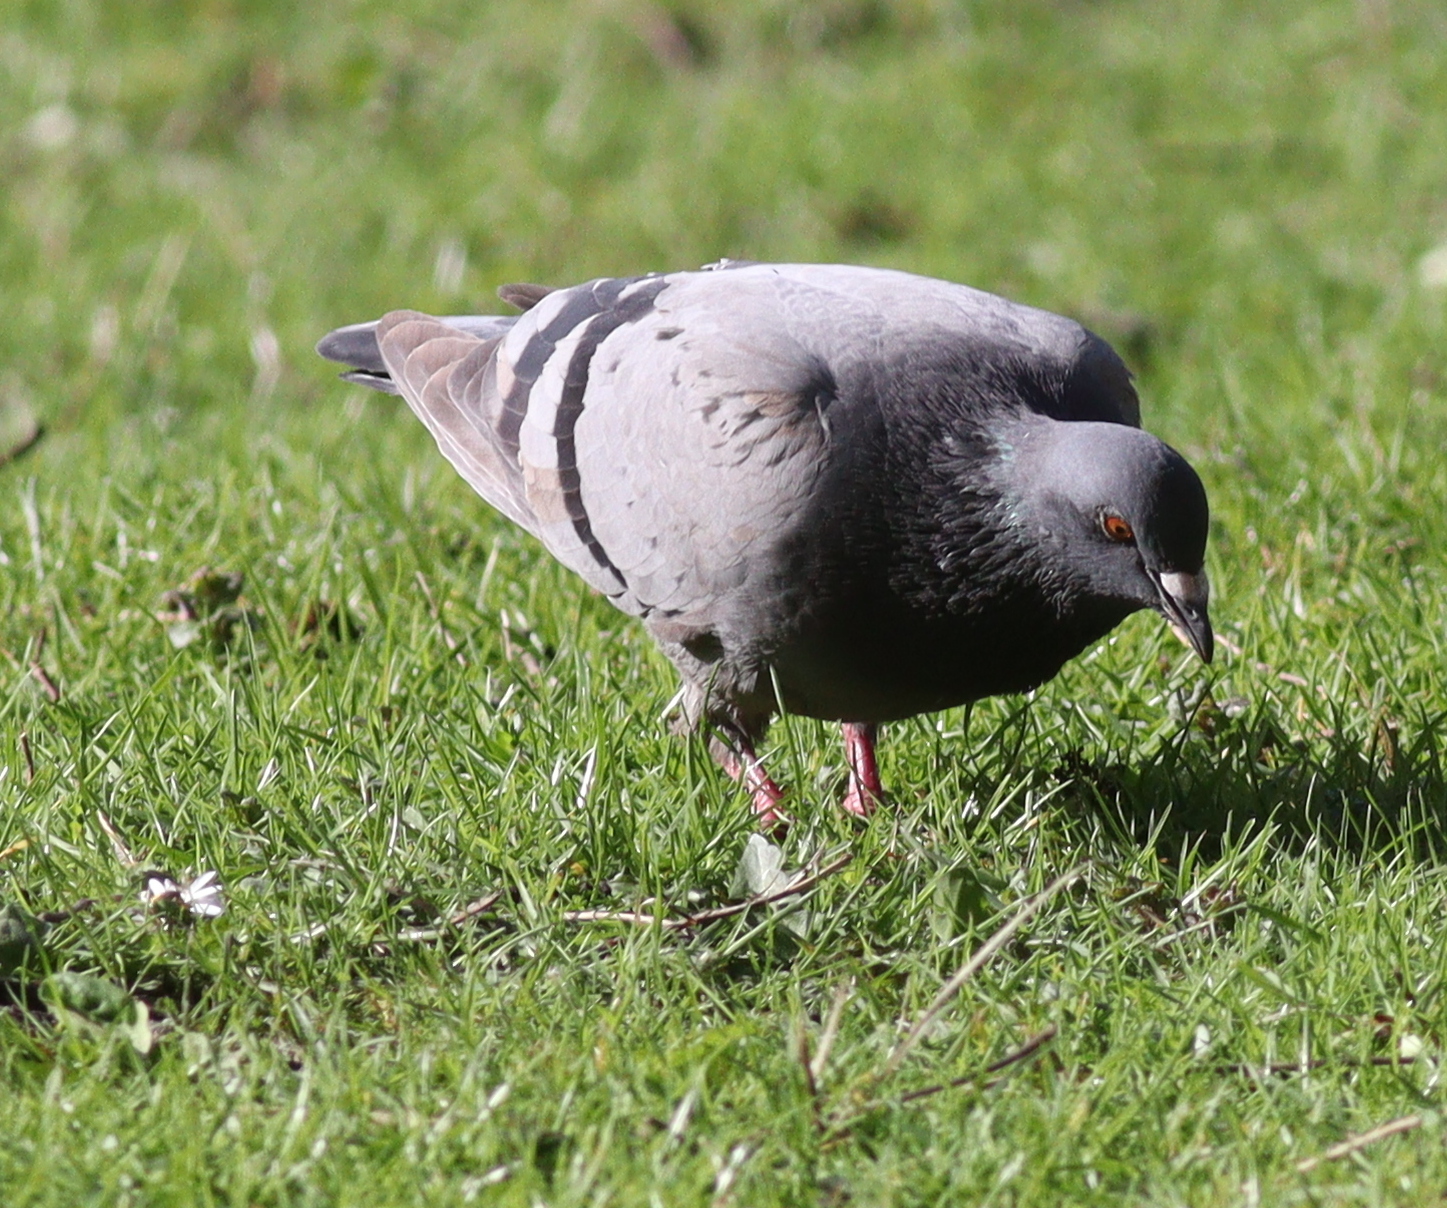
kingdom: Animalia
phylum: Chordata
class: Aves
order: Columbiformes
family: Columbidae
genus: Columba
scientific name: Columba livia
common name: Rock pigeon
